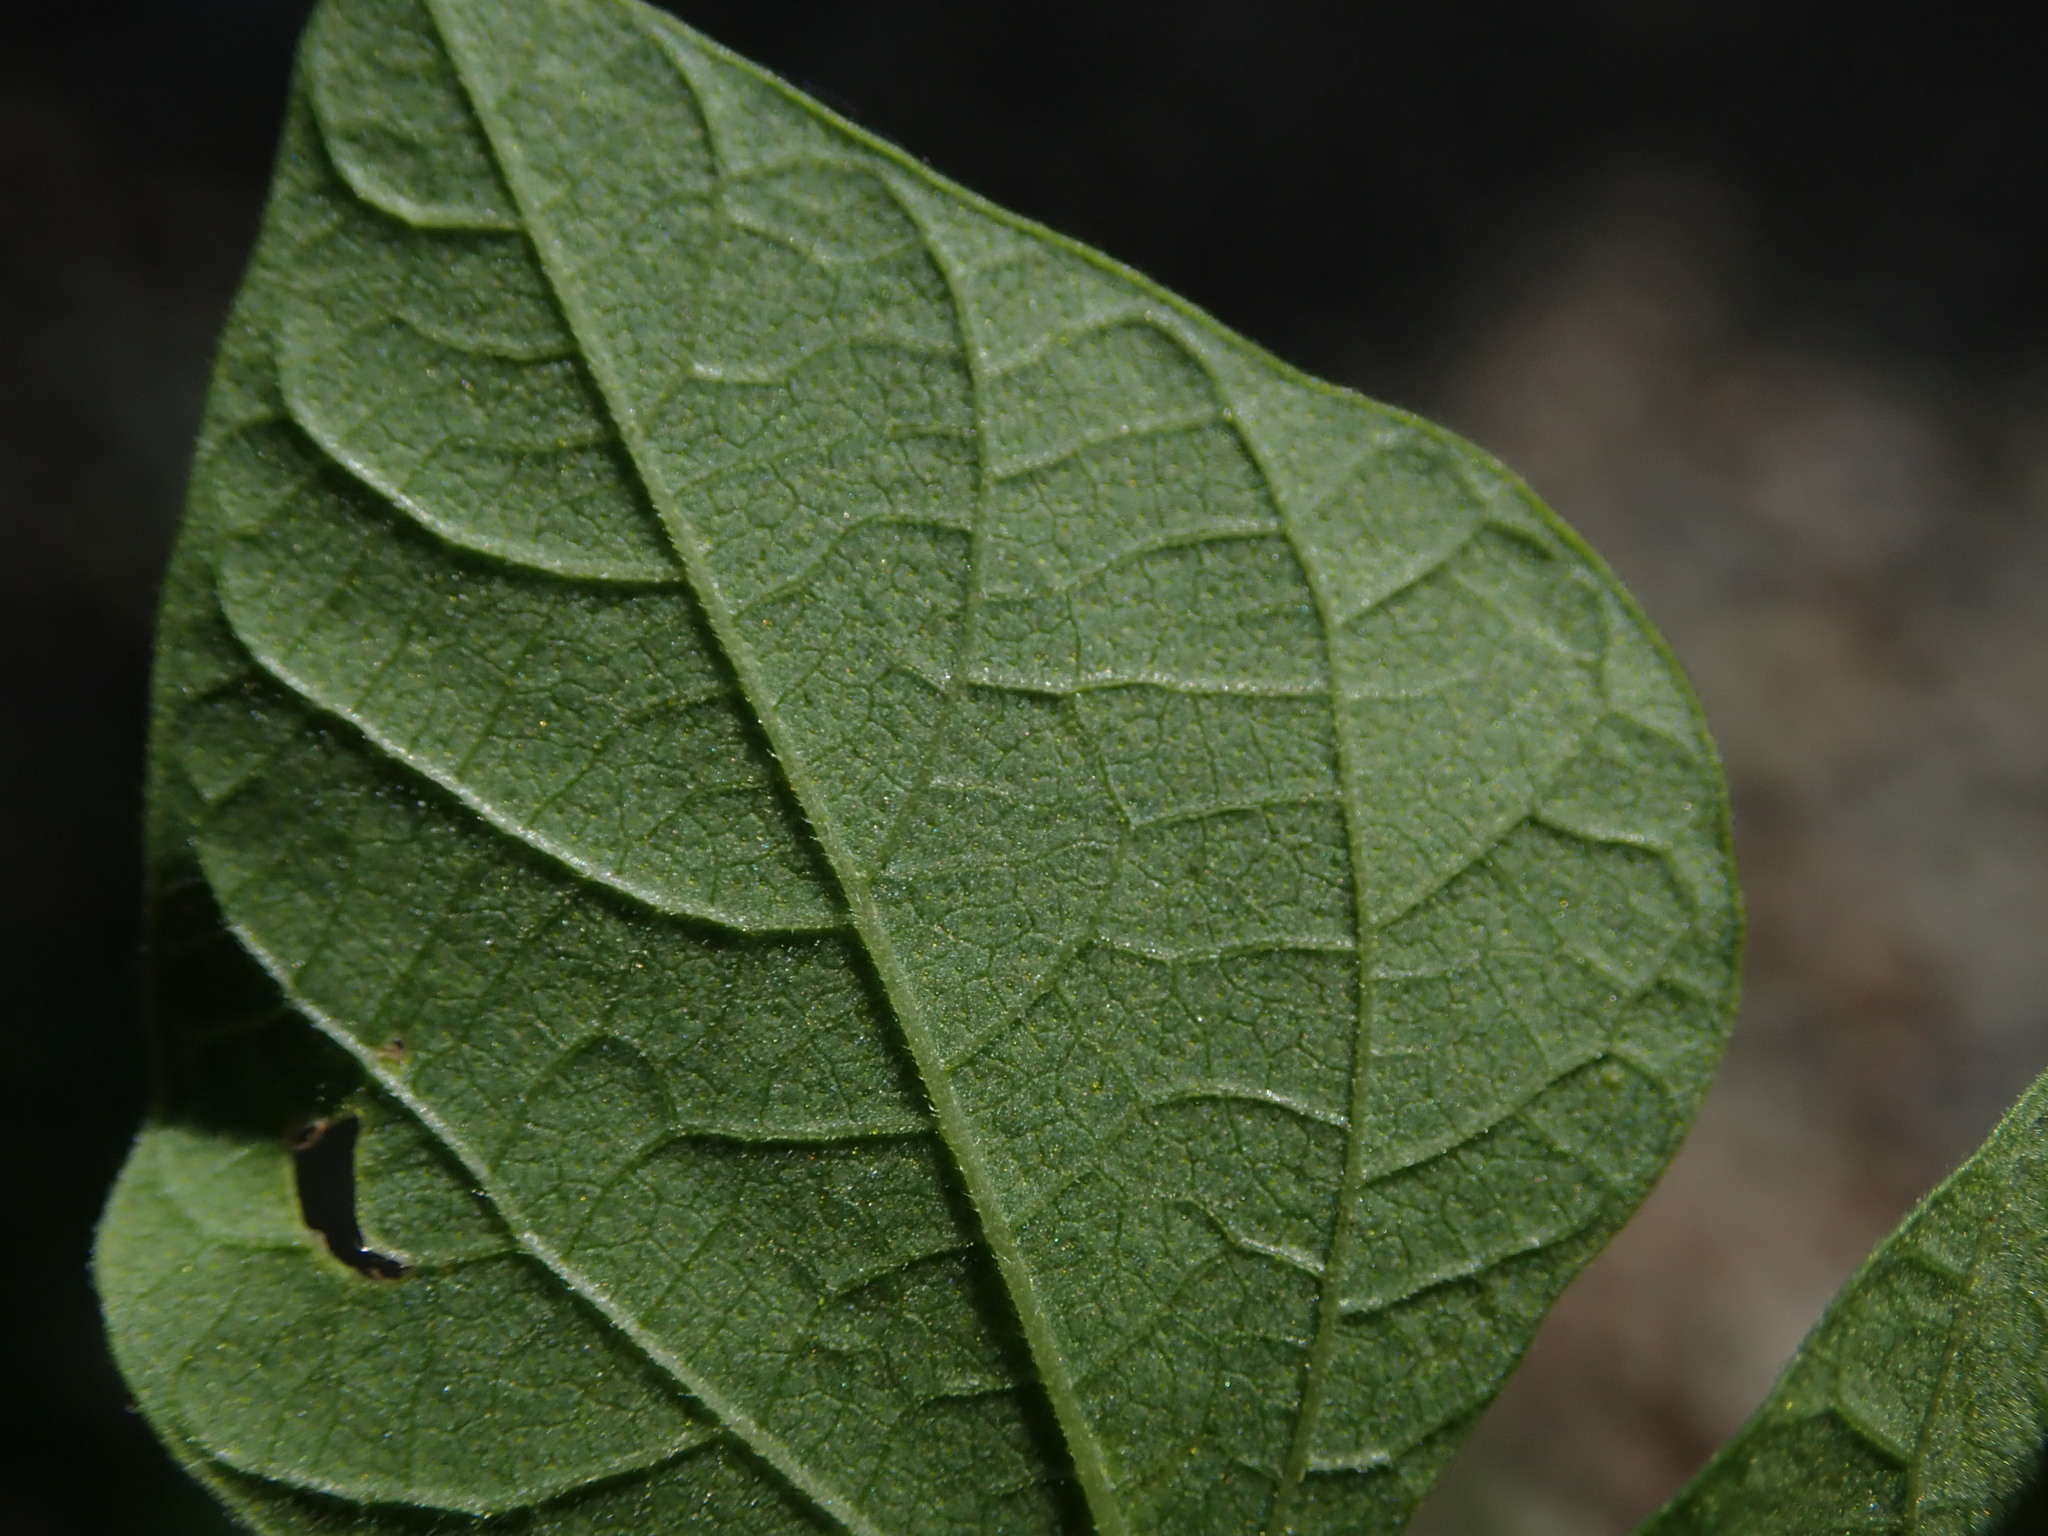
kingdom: Plantae
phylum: Tracheophyta
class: Magnoliopsida
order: Fabales
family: Fabaceae
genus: Rhynchosia
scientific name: Rhynchosia minima
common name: Least snoutbean
